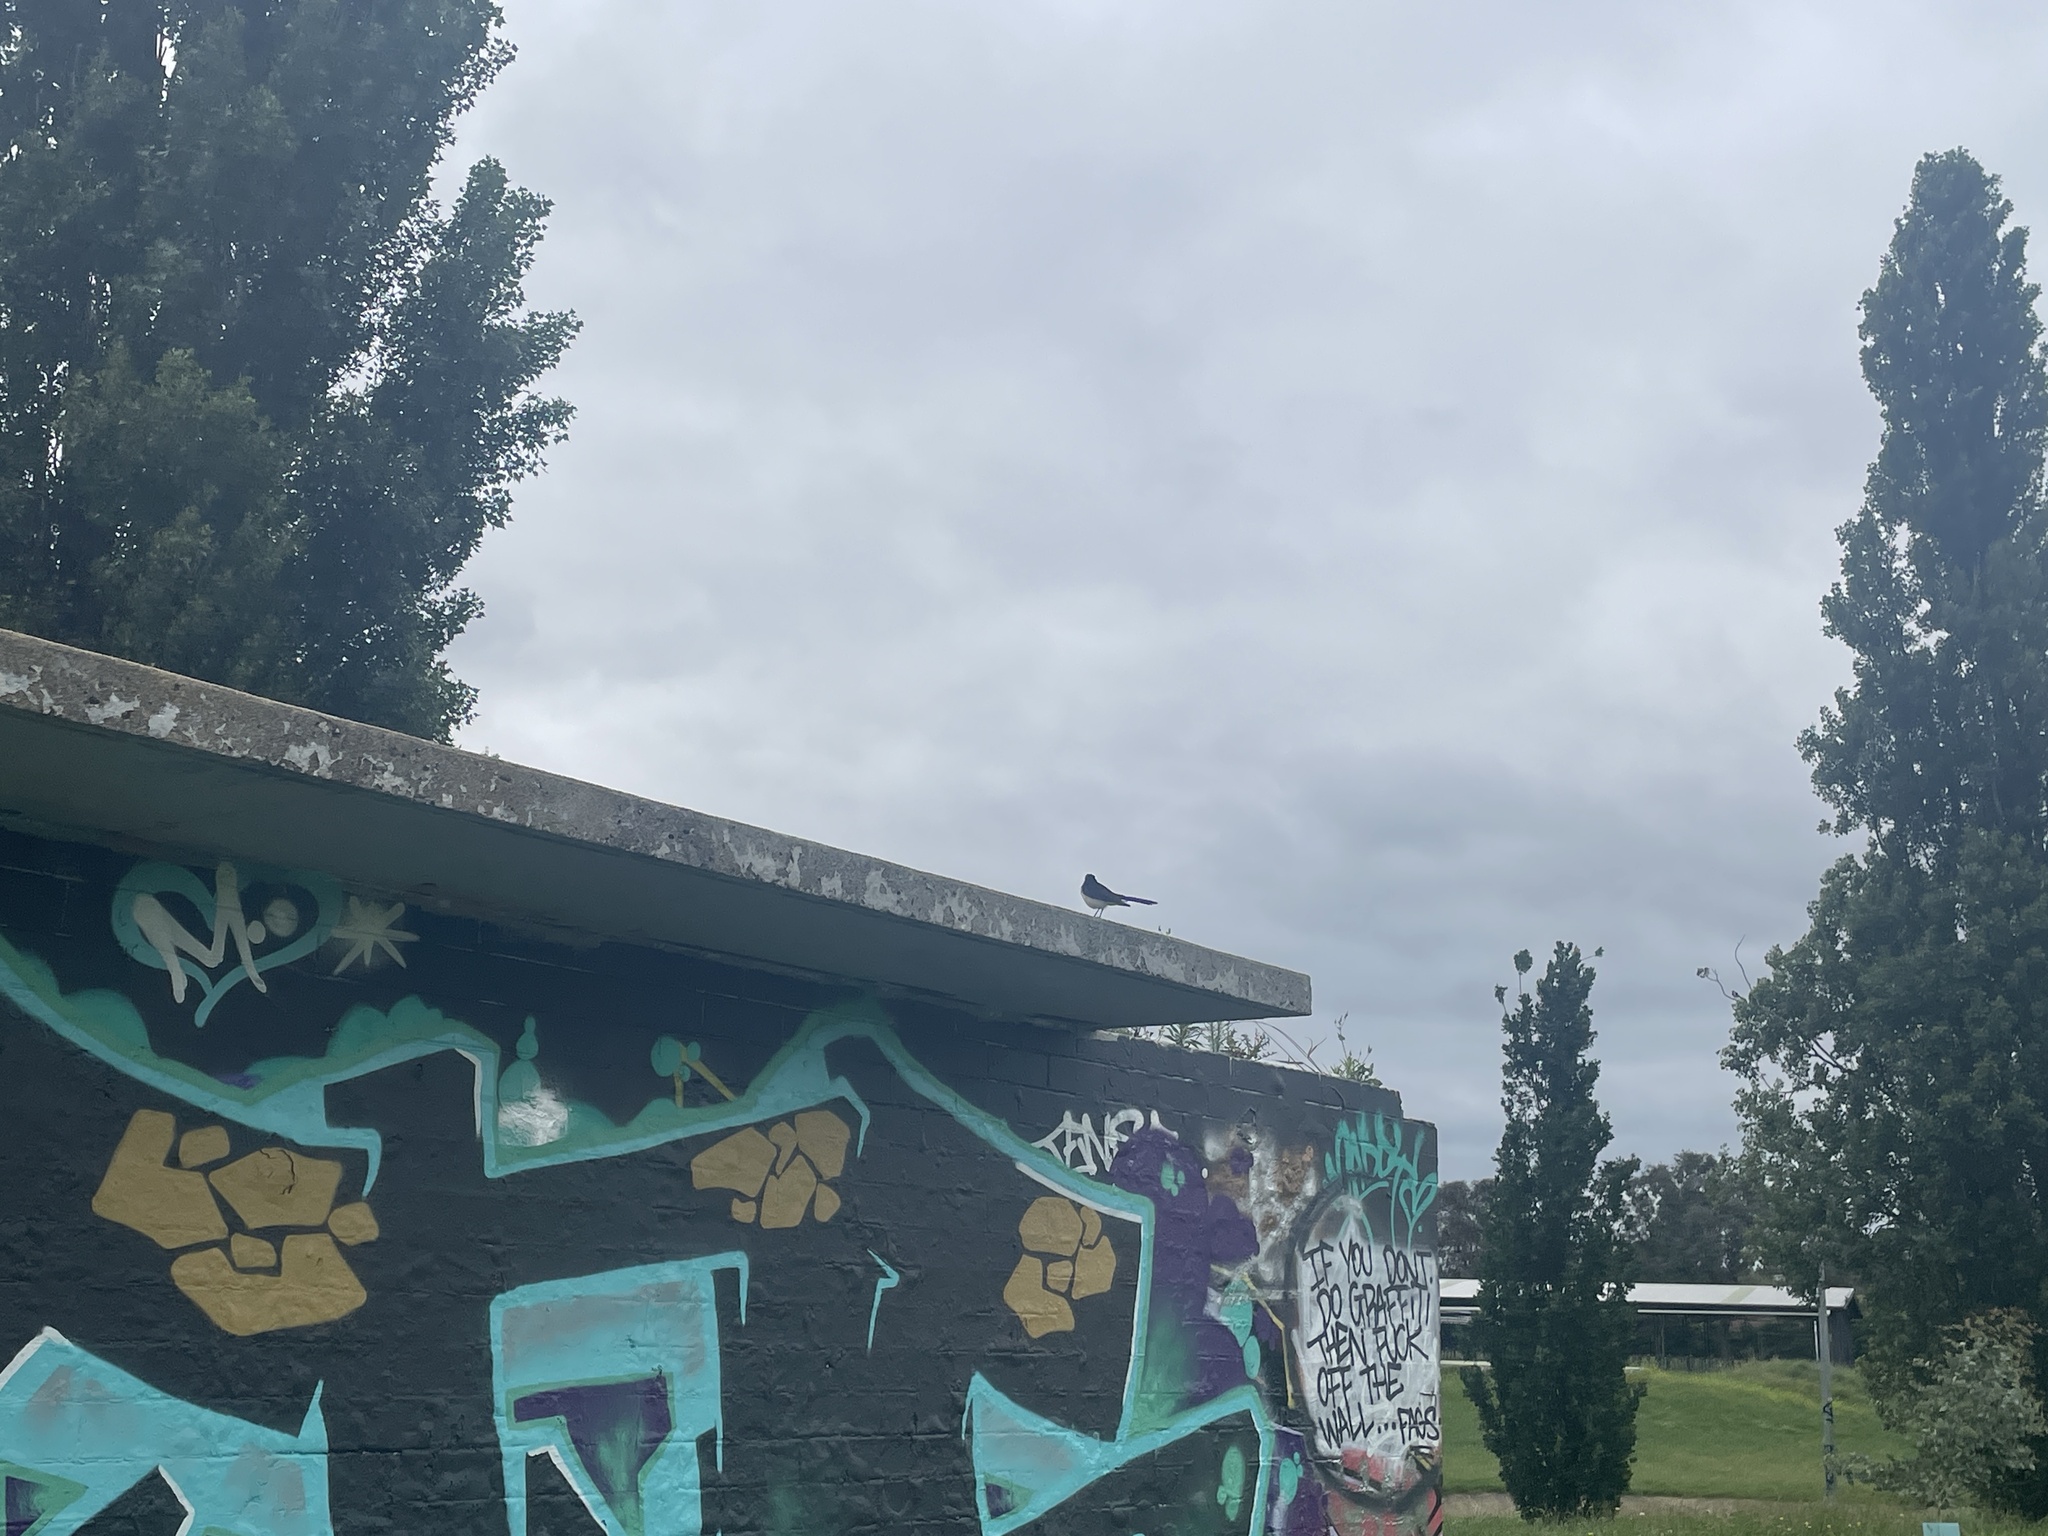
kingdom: Animalia
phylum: Chordata
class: Aves
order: Passeriformes
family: Rhipiduridae
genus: Rhipidura
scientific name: Rhipidura leucophrys
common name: Willie wagtail
